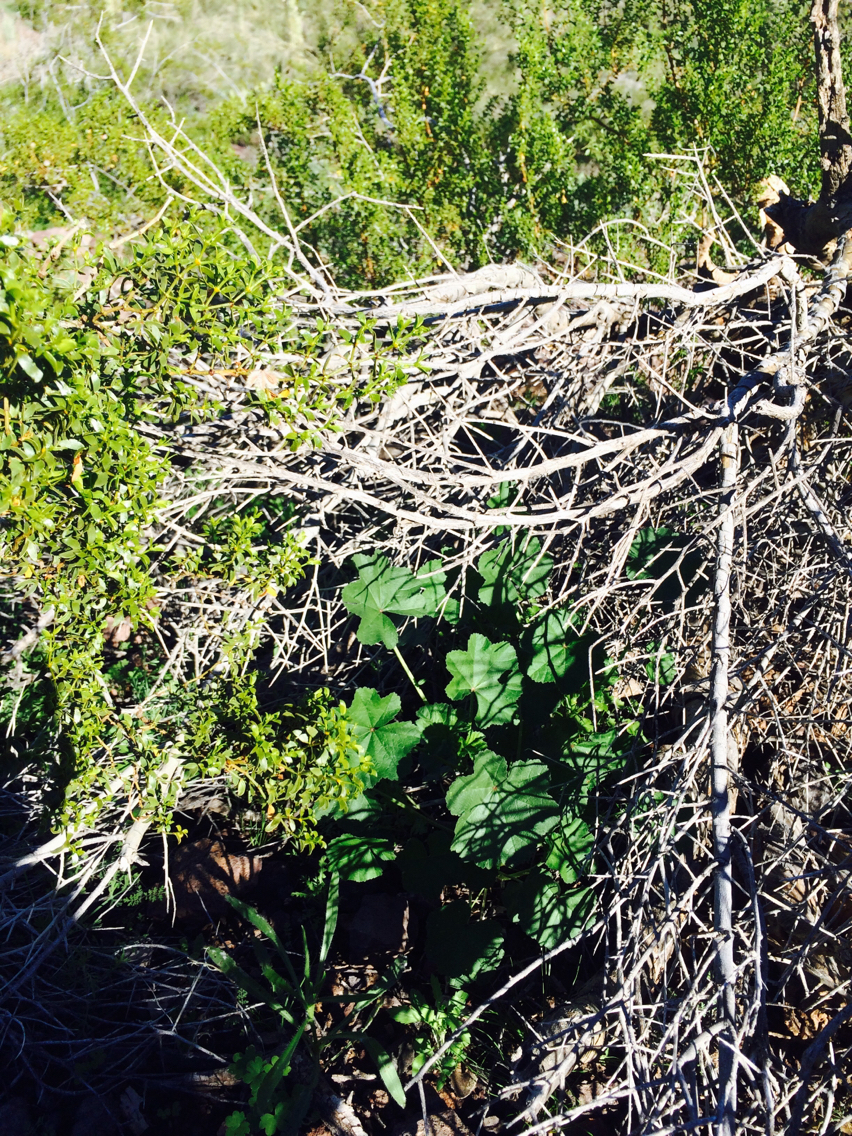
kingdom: Plantae
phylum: Tracheophyta
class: Magnoliopsida
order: Malvales
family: Malvaceae
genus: Malva
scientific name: Malva parviflora
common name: Least mallow
